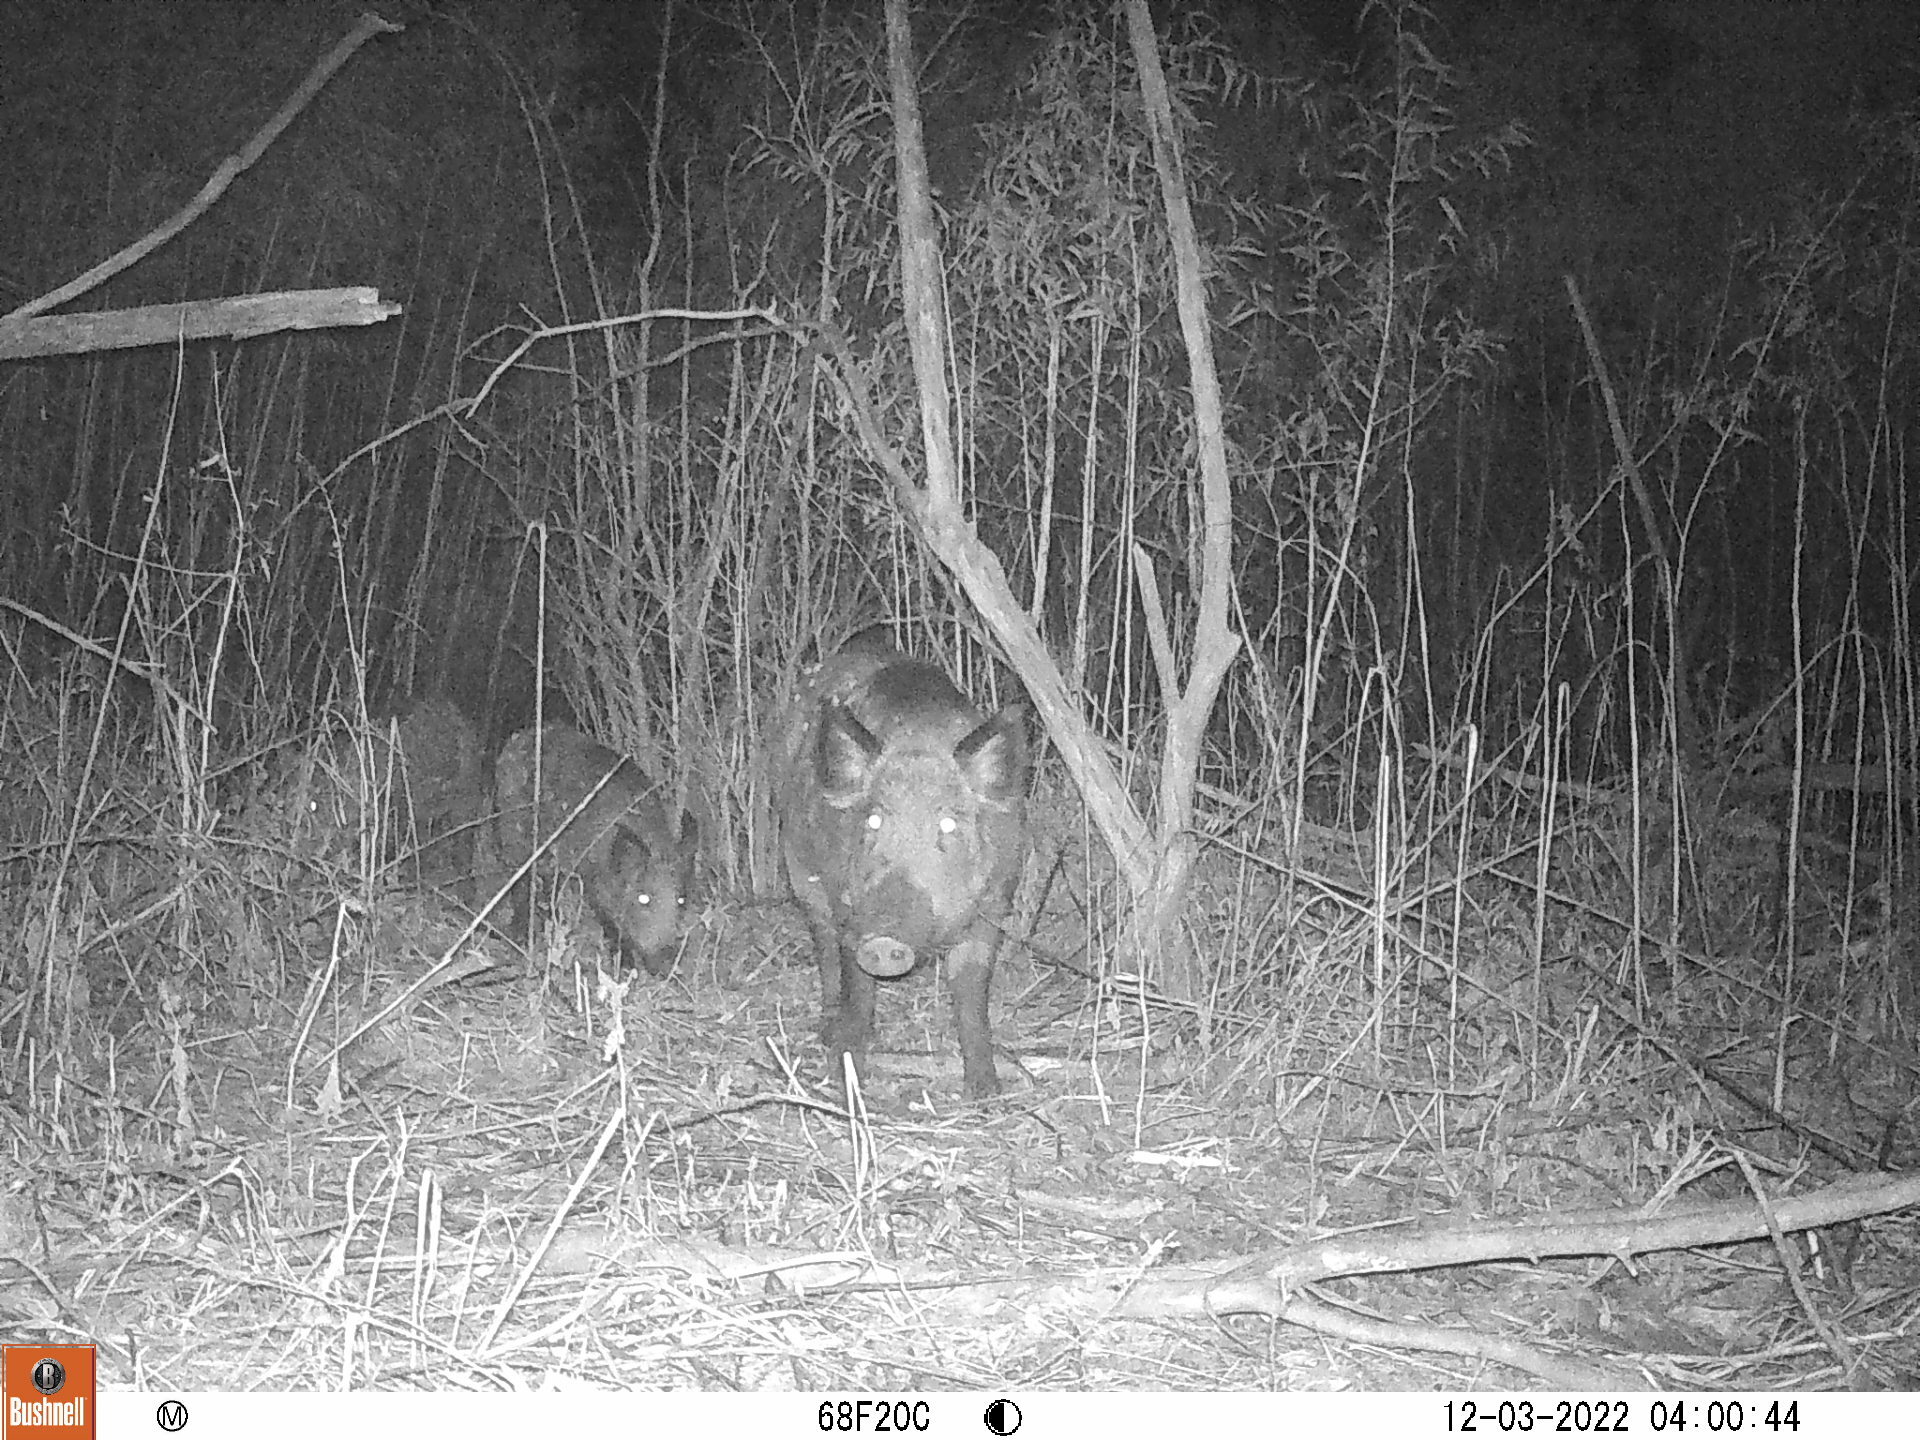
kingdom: Animalia
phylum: Chordata
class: Mammalia
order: Artiodactyla
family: Suidae
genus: Sus
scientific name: Sus scrofa
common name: Wild boar
